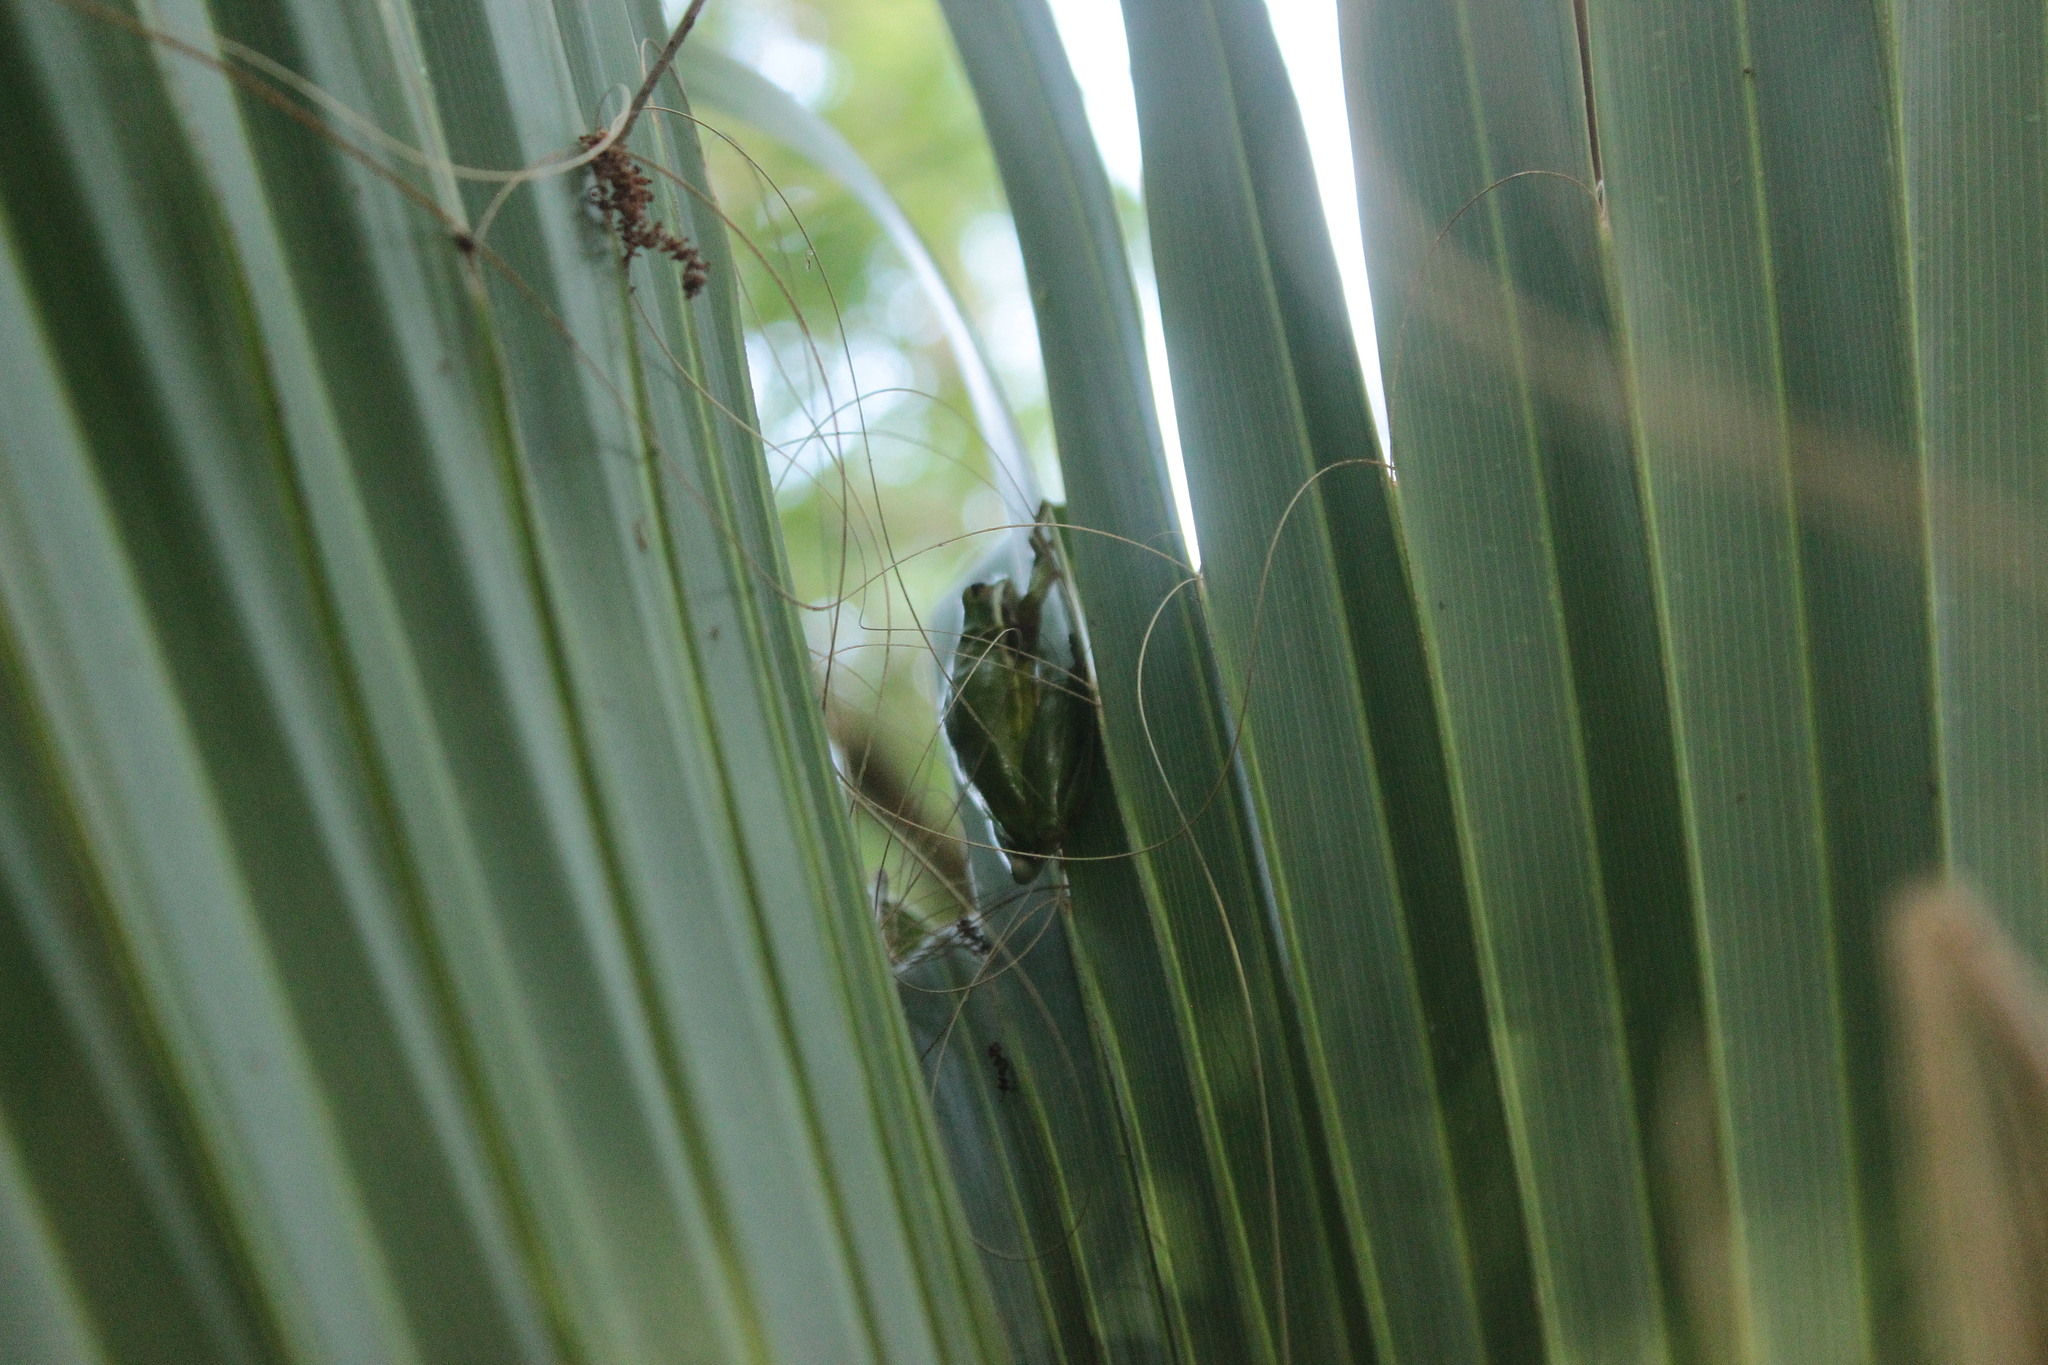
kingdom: Animalia
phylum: Chordata
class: Amphibia
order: Anura
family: Hylidae
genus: Dryophytes
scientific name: Dryophytes cinereus
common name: Green treefrog
